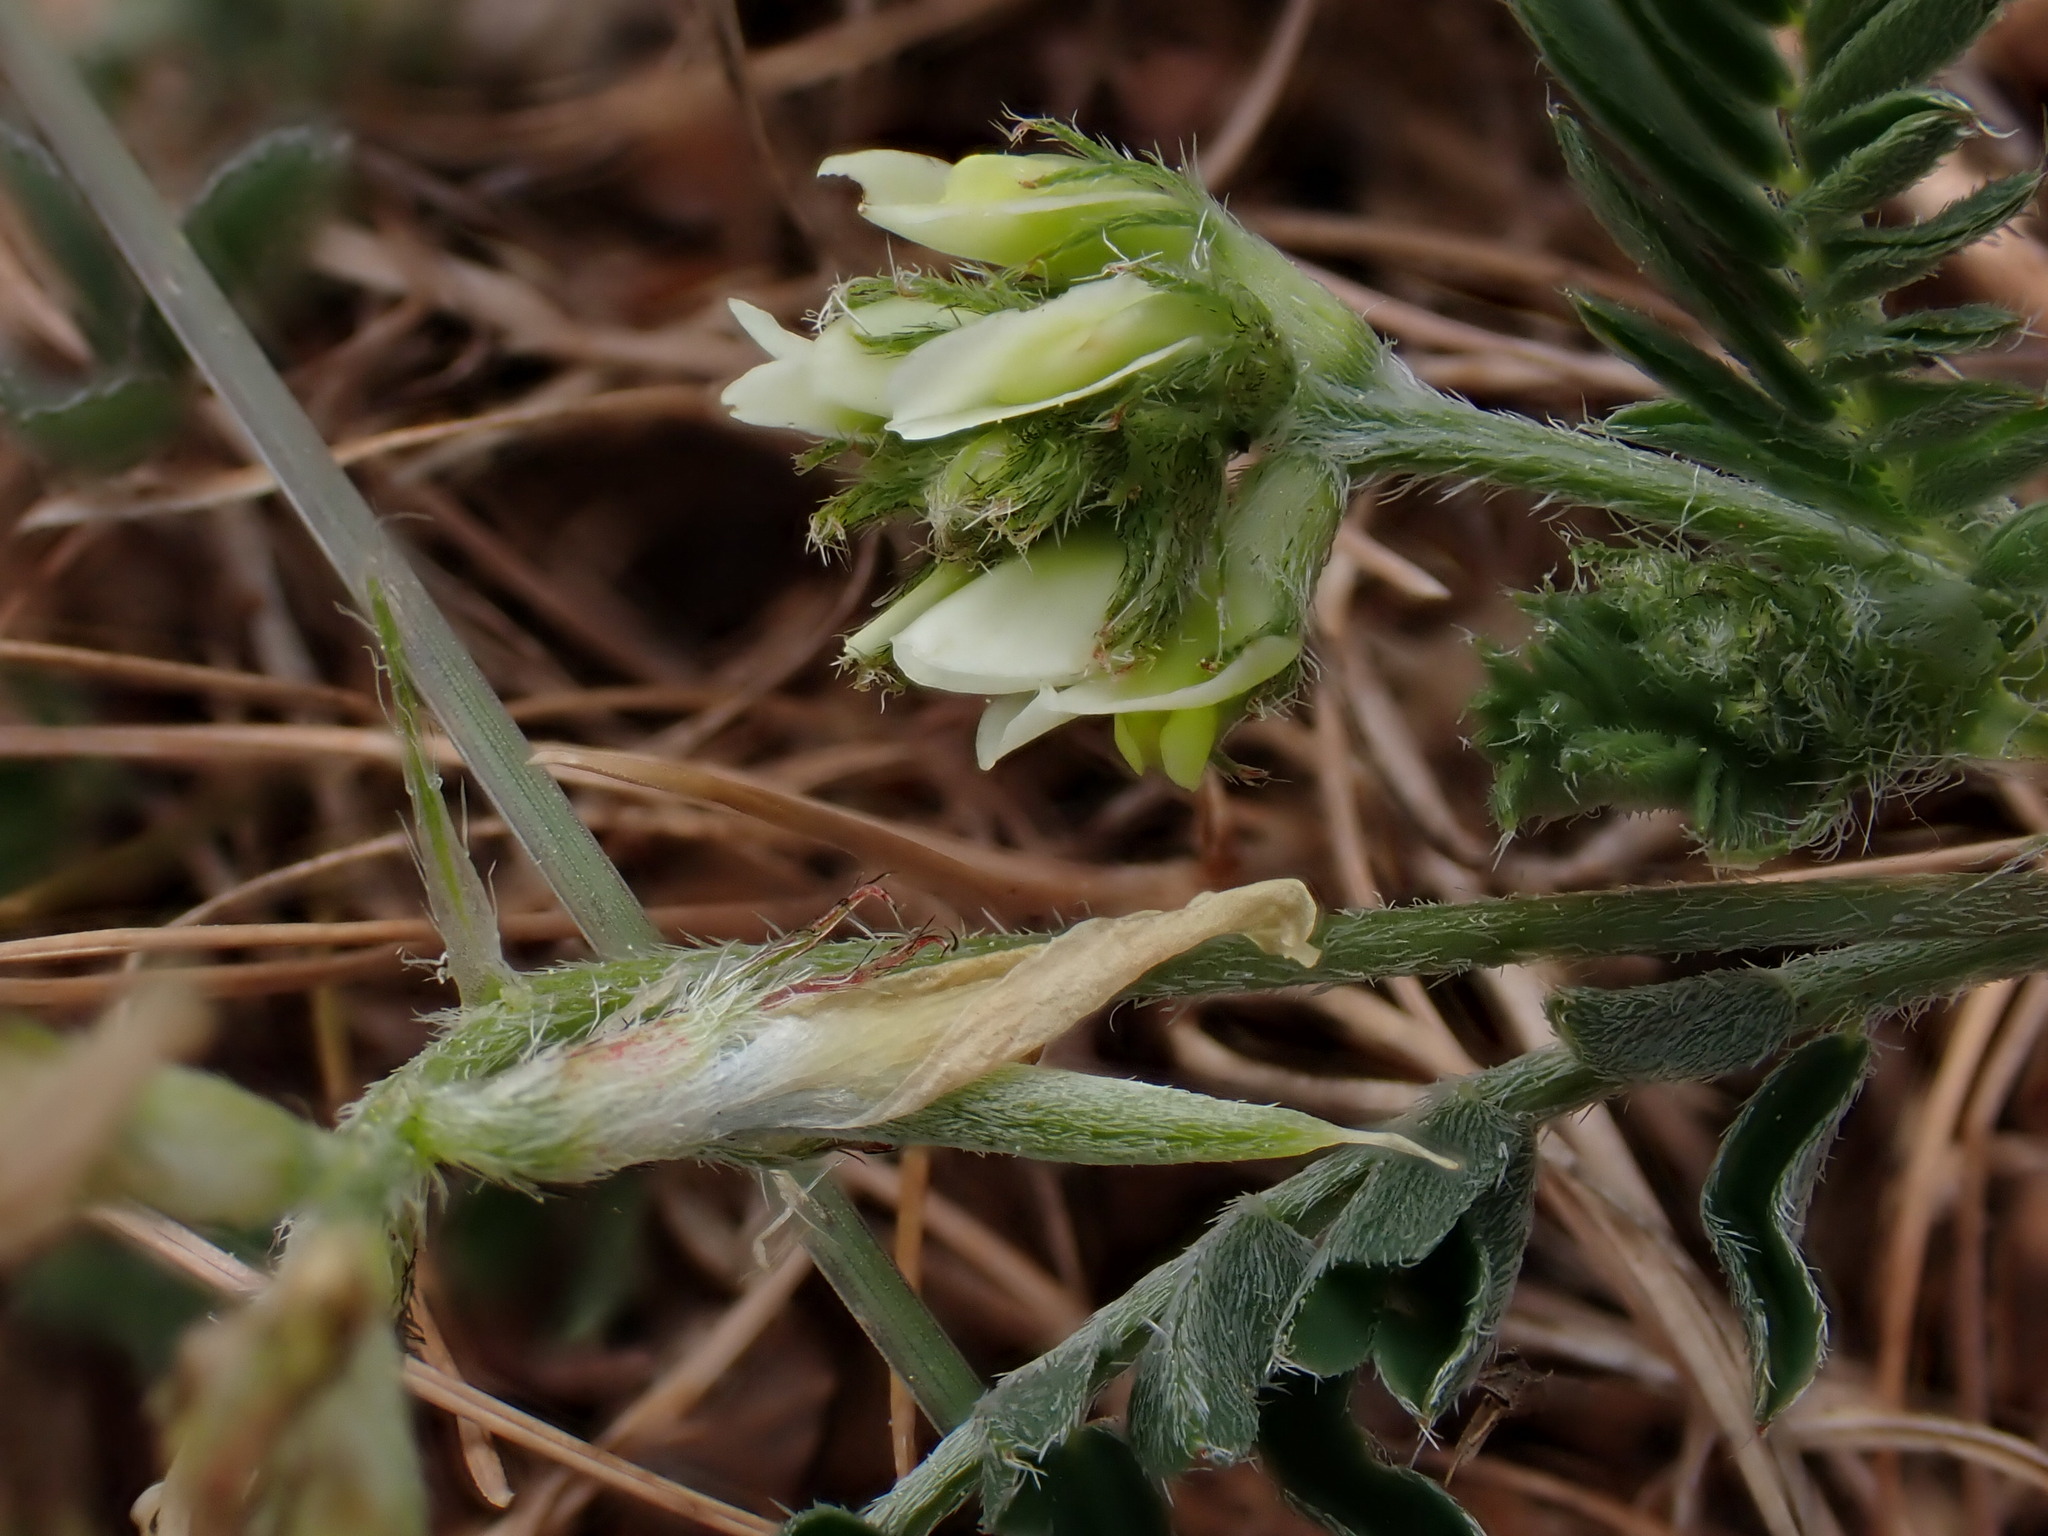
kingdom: Plantae
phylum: Tracheophyta
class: Magnoliopsida
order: Fabales
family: Fabaceae
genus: Astragalus
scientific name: Astragalus hamosus
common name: European milkvetch
